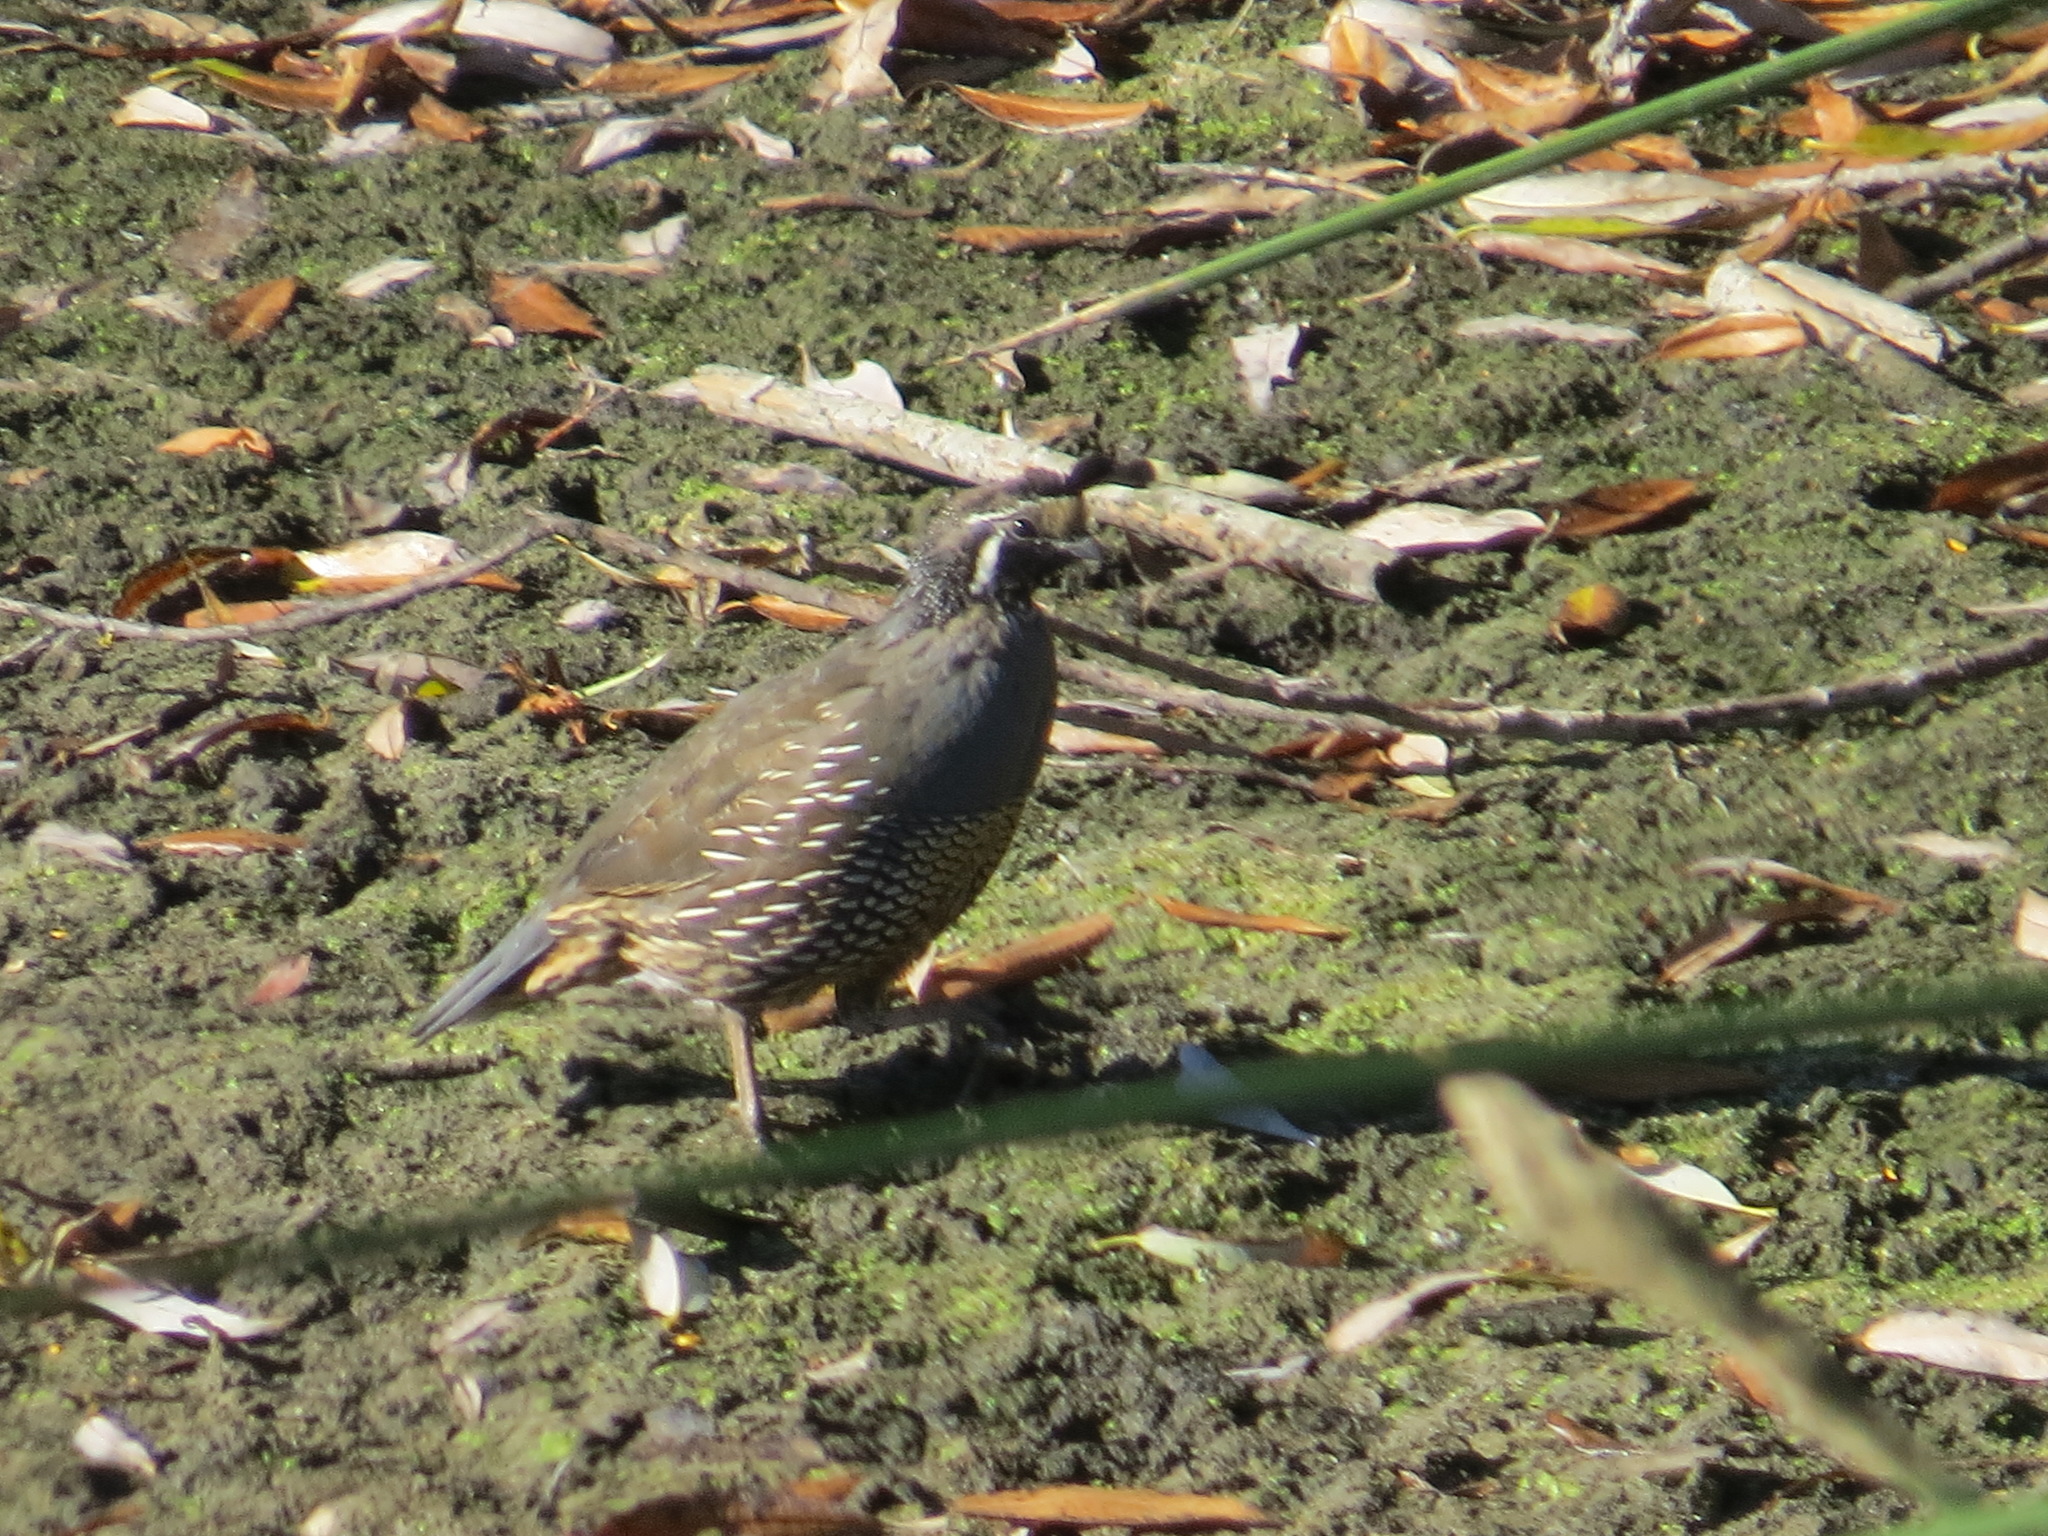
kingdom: Animalia
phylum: Chordata
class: Aves
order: Galliformes
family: Odontophoridae
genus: Callipepla
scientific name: Callipepla californica
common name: California quail
